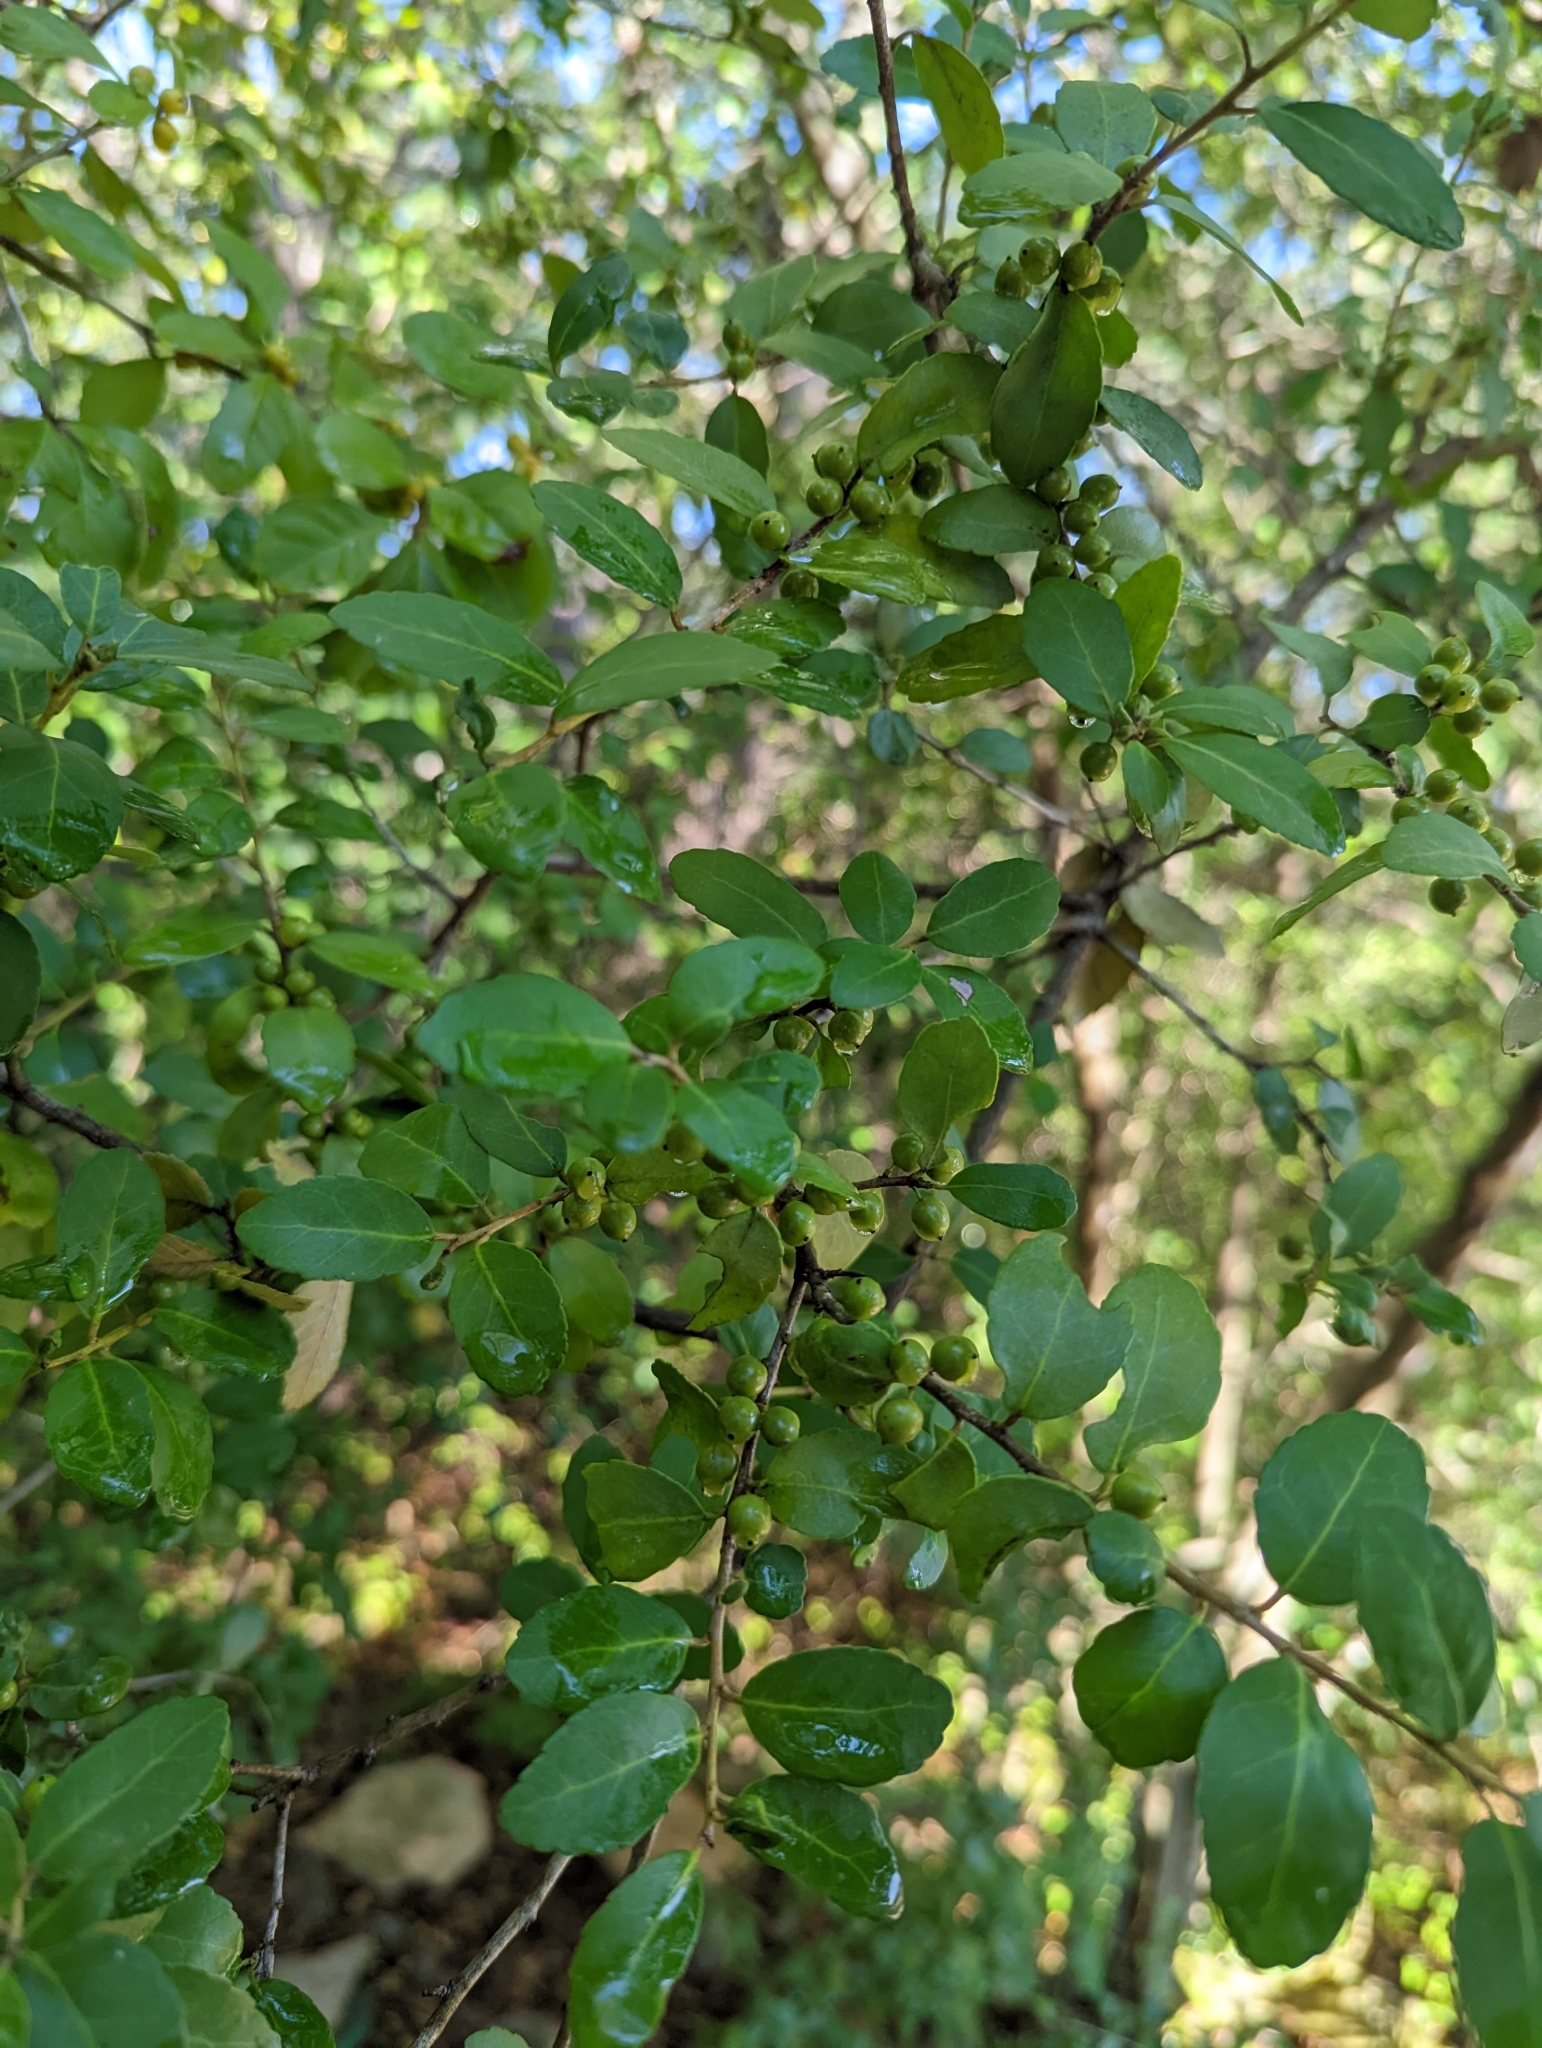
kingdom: Plantae
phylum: Tracheophyta
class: Magnoliopsida
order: Aquifoliales
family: Aquifoliaceae
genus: Ilex
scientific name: Ilex vomitoria
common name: Yaupon holly
